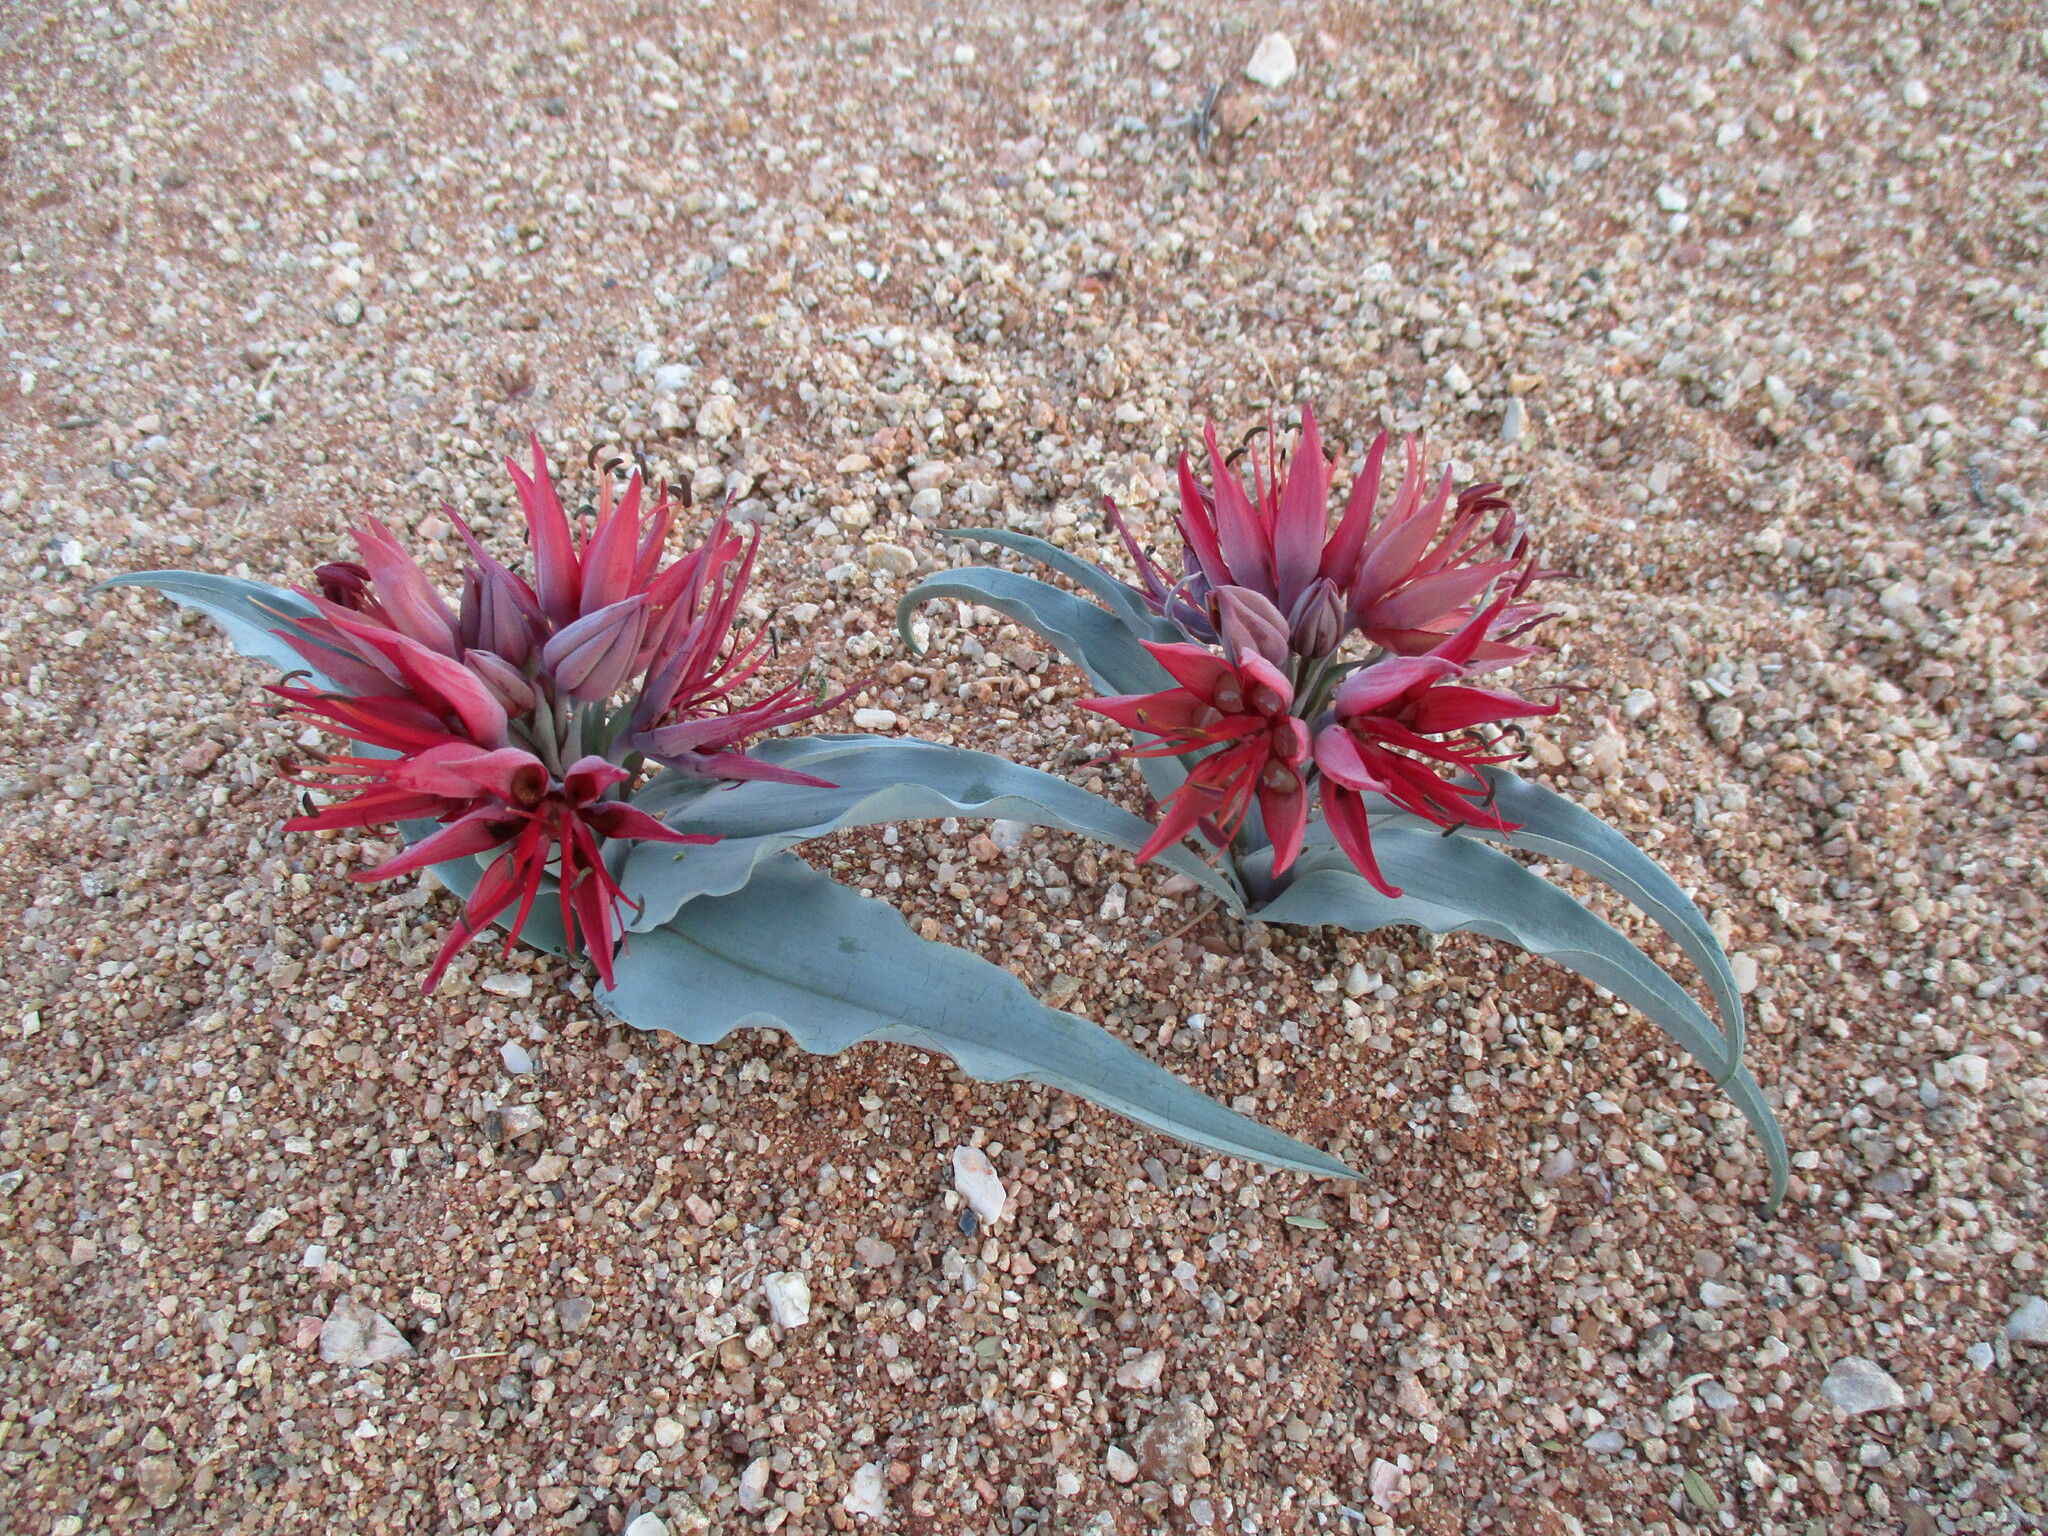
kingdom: Plantae
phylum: Tracheophyta
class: Liliopsida
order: Liliales
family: Colchicaceae
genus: Ornithoglossum
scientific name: Ornithoglossum pulchrum
